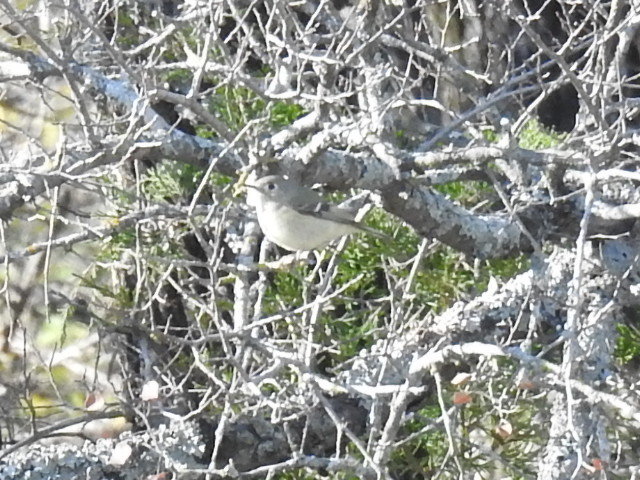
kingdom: Animalia
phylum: Chordata
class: Aves
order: Passeriformes
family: Regulidae
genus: Regulus
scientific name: Regulus calendula
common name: Ruby-crowned kinglet
